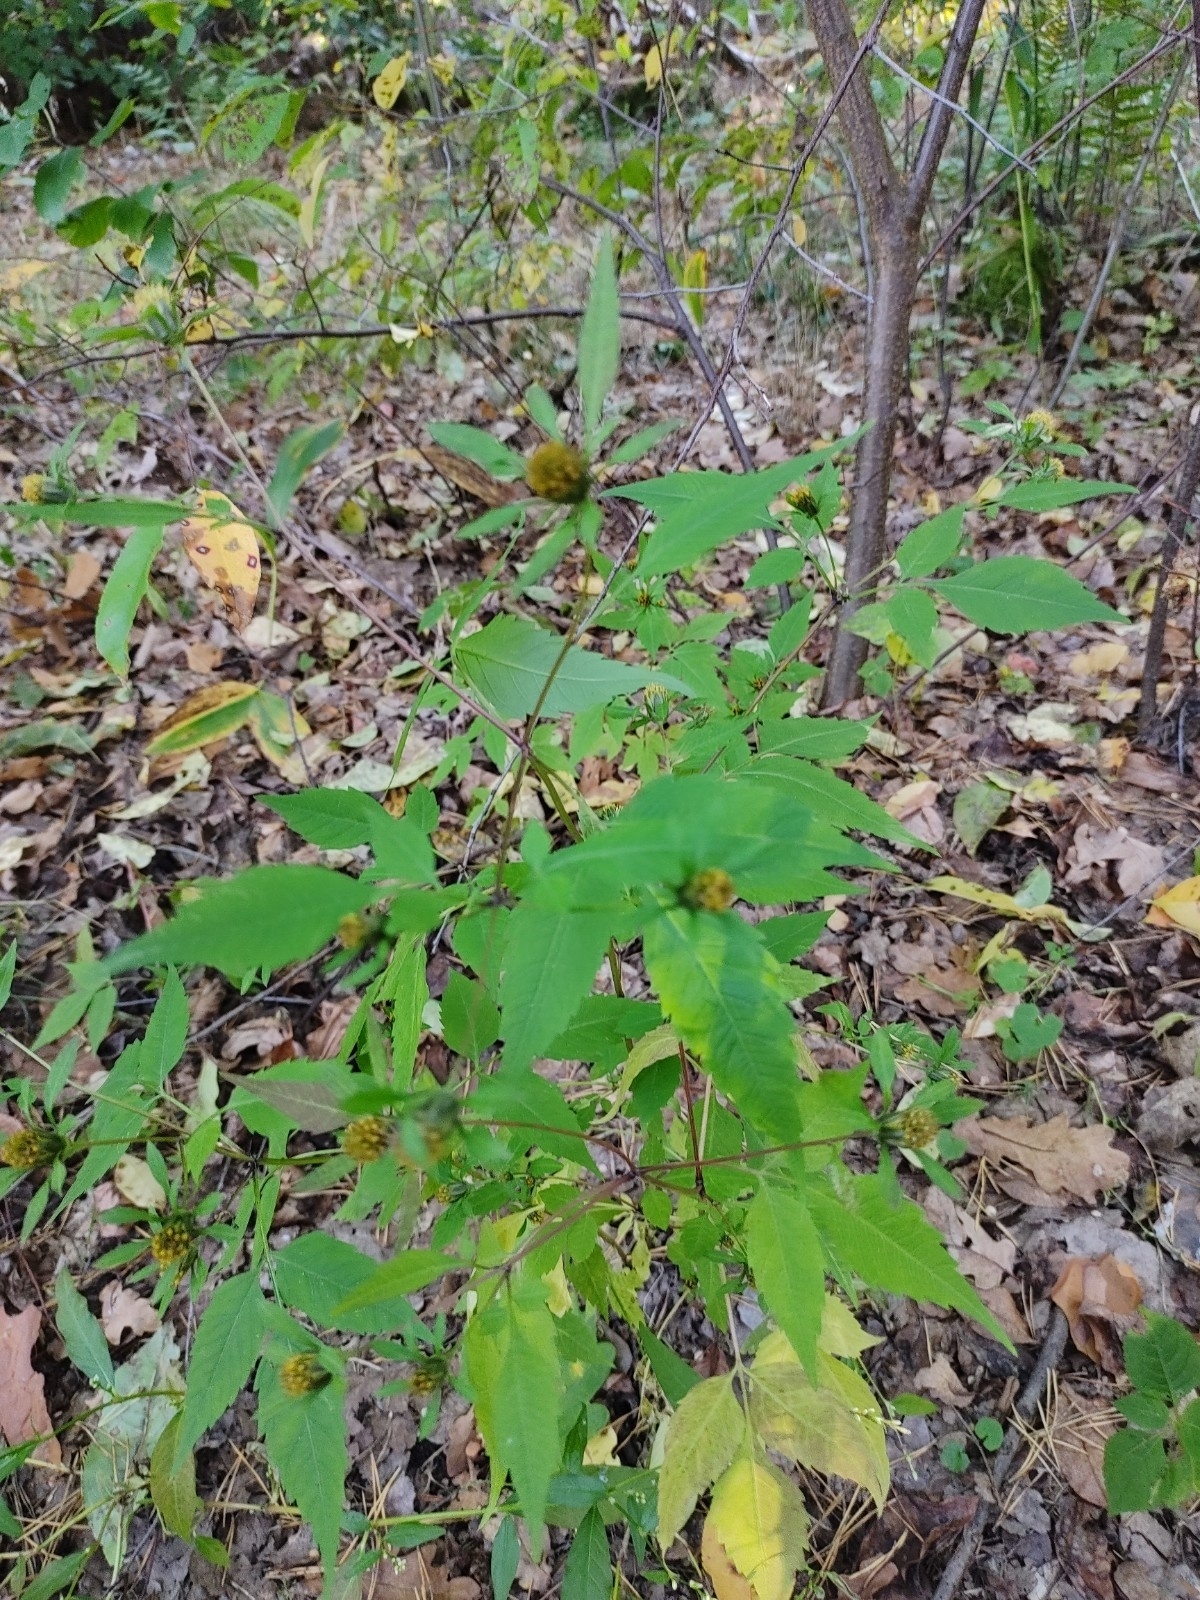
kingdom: Plantae
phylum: Tracheophyta
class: Magnoliopsida
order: Asterales
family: Asteraceae
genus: Bidens
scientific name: Bidens frondosa
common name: Beggarticks
